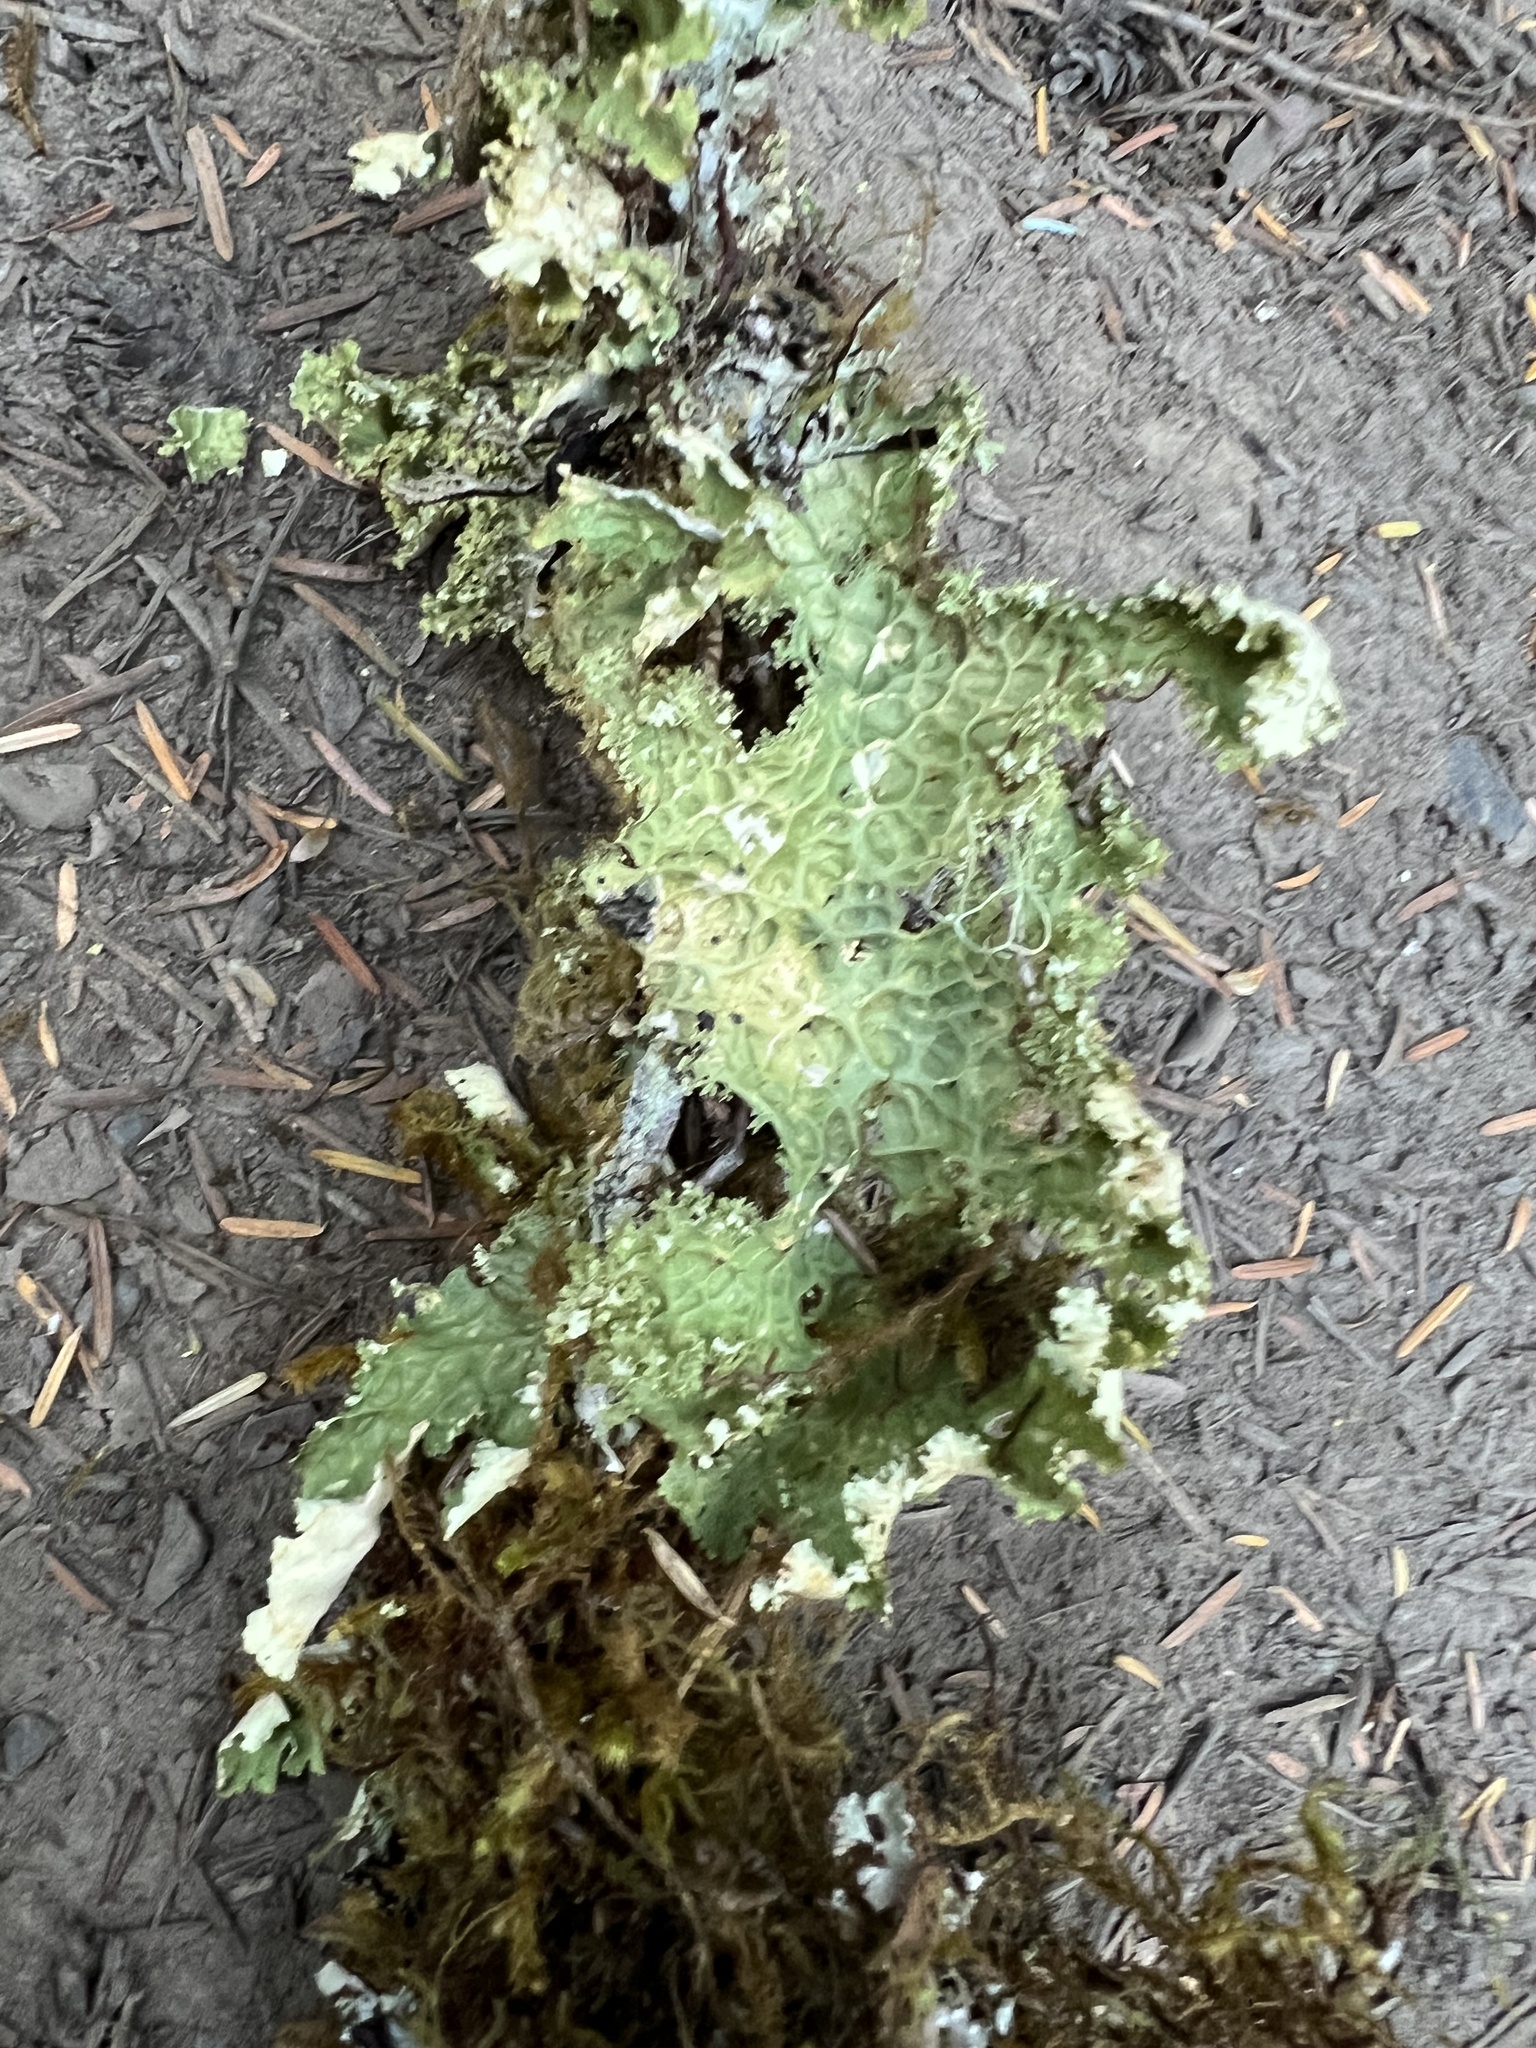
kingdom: Fungi
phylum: Ascomycota
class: Lecanoromycetes
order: Peltigerales
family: Lobariaceae
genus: Lobaria
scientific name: Lobaria oregana
